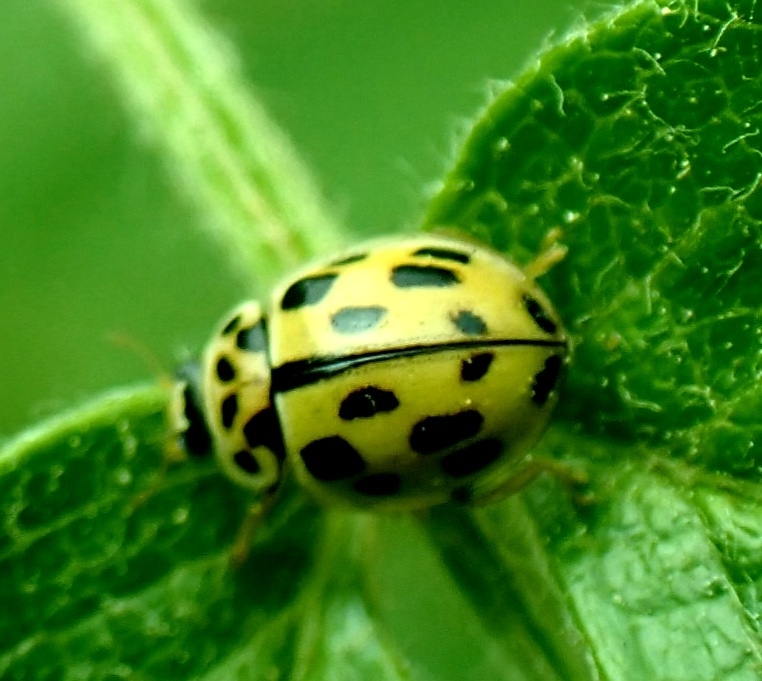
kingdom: Animalia
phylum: Arthropoda
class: Insecta
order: Coleoptera
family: Coccinellidae
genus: Propylaea
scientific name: Propylaea quatuordecimpunctata
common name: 14-spotted ladybird beetle
